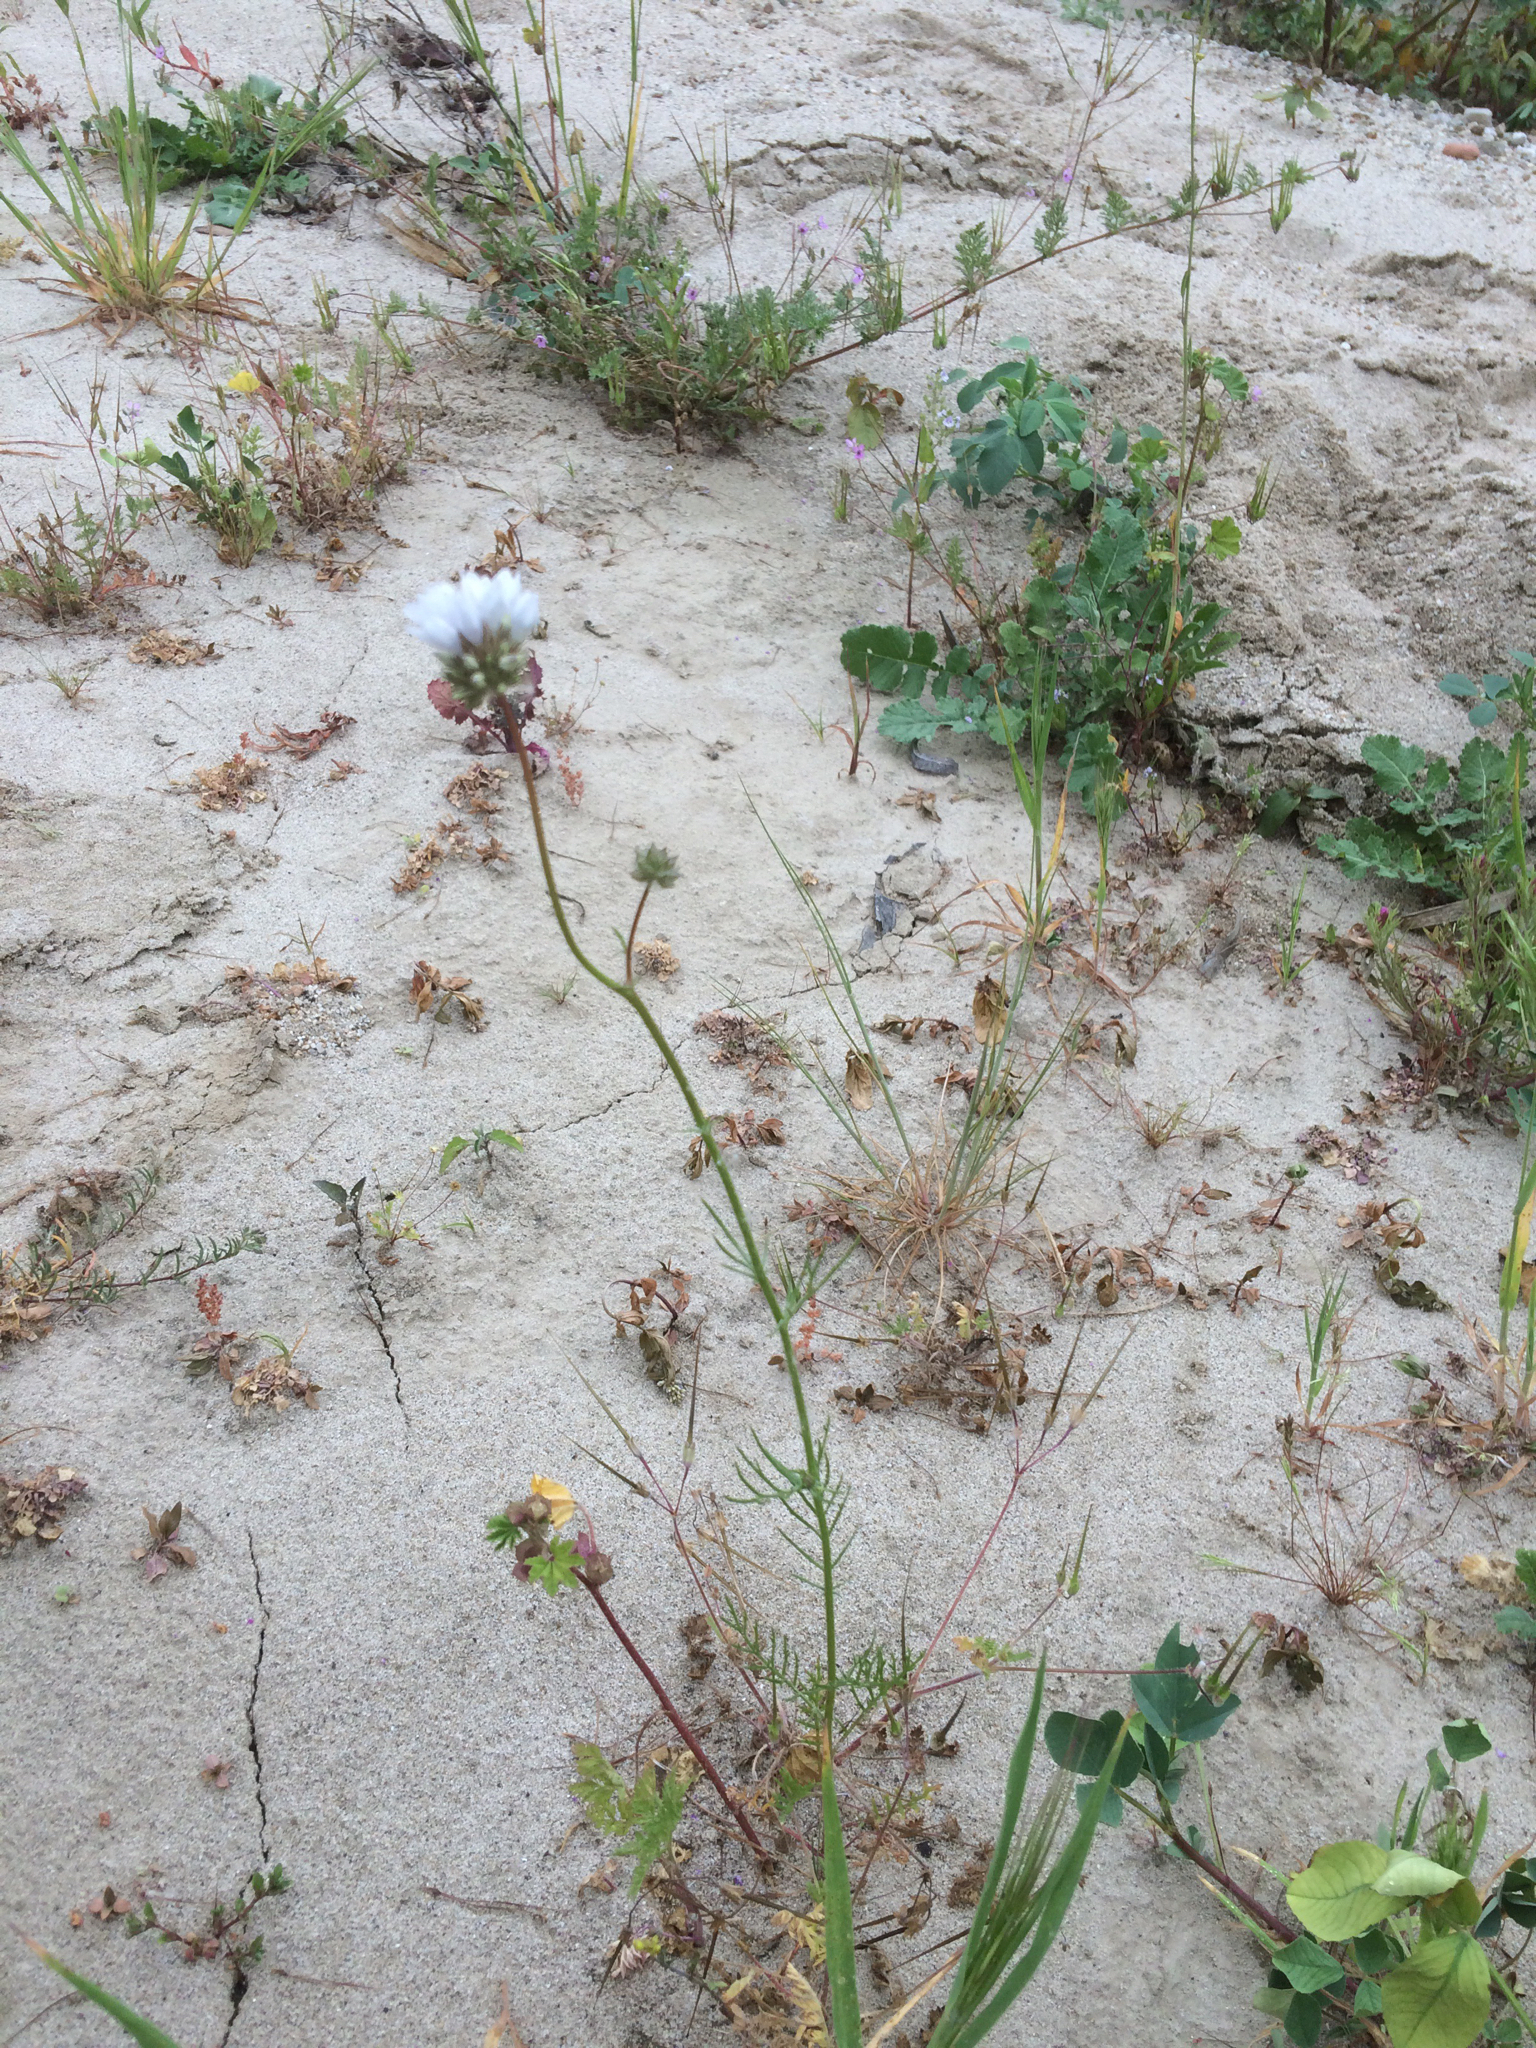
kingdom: Plantae
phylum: Tracheophyta
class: Magnoliopsida
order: Ericales
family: Polemoniaceae
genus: Gilia
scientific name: Gilia capitata
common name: Bluehead gilia
